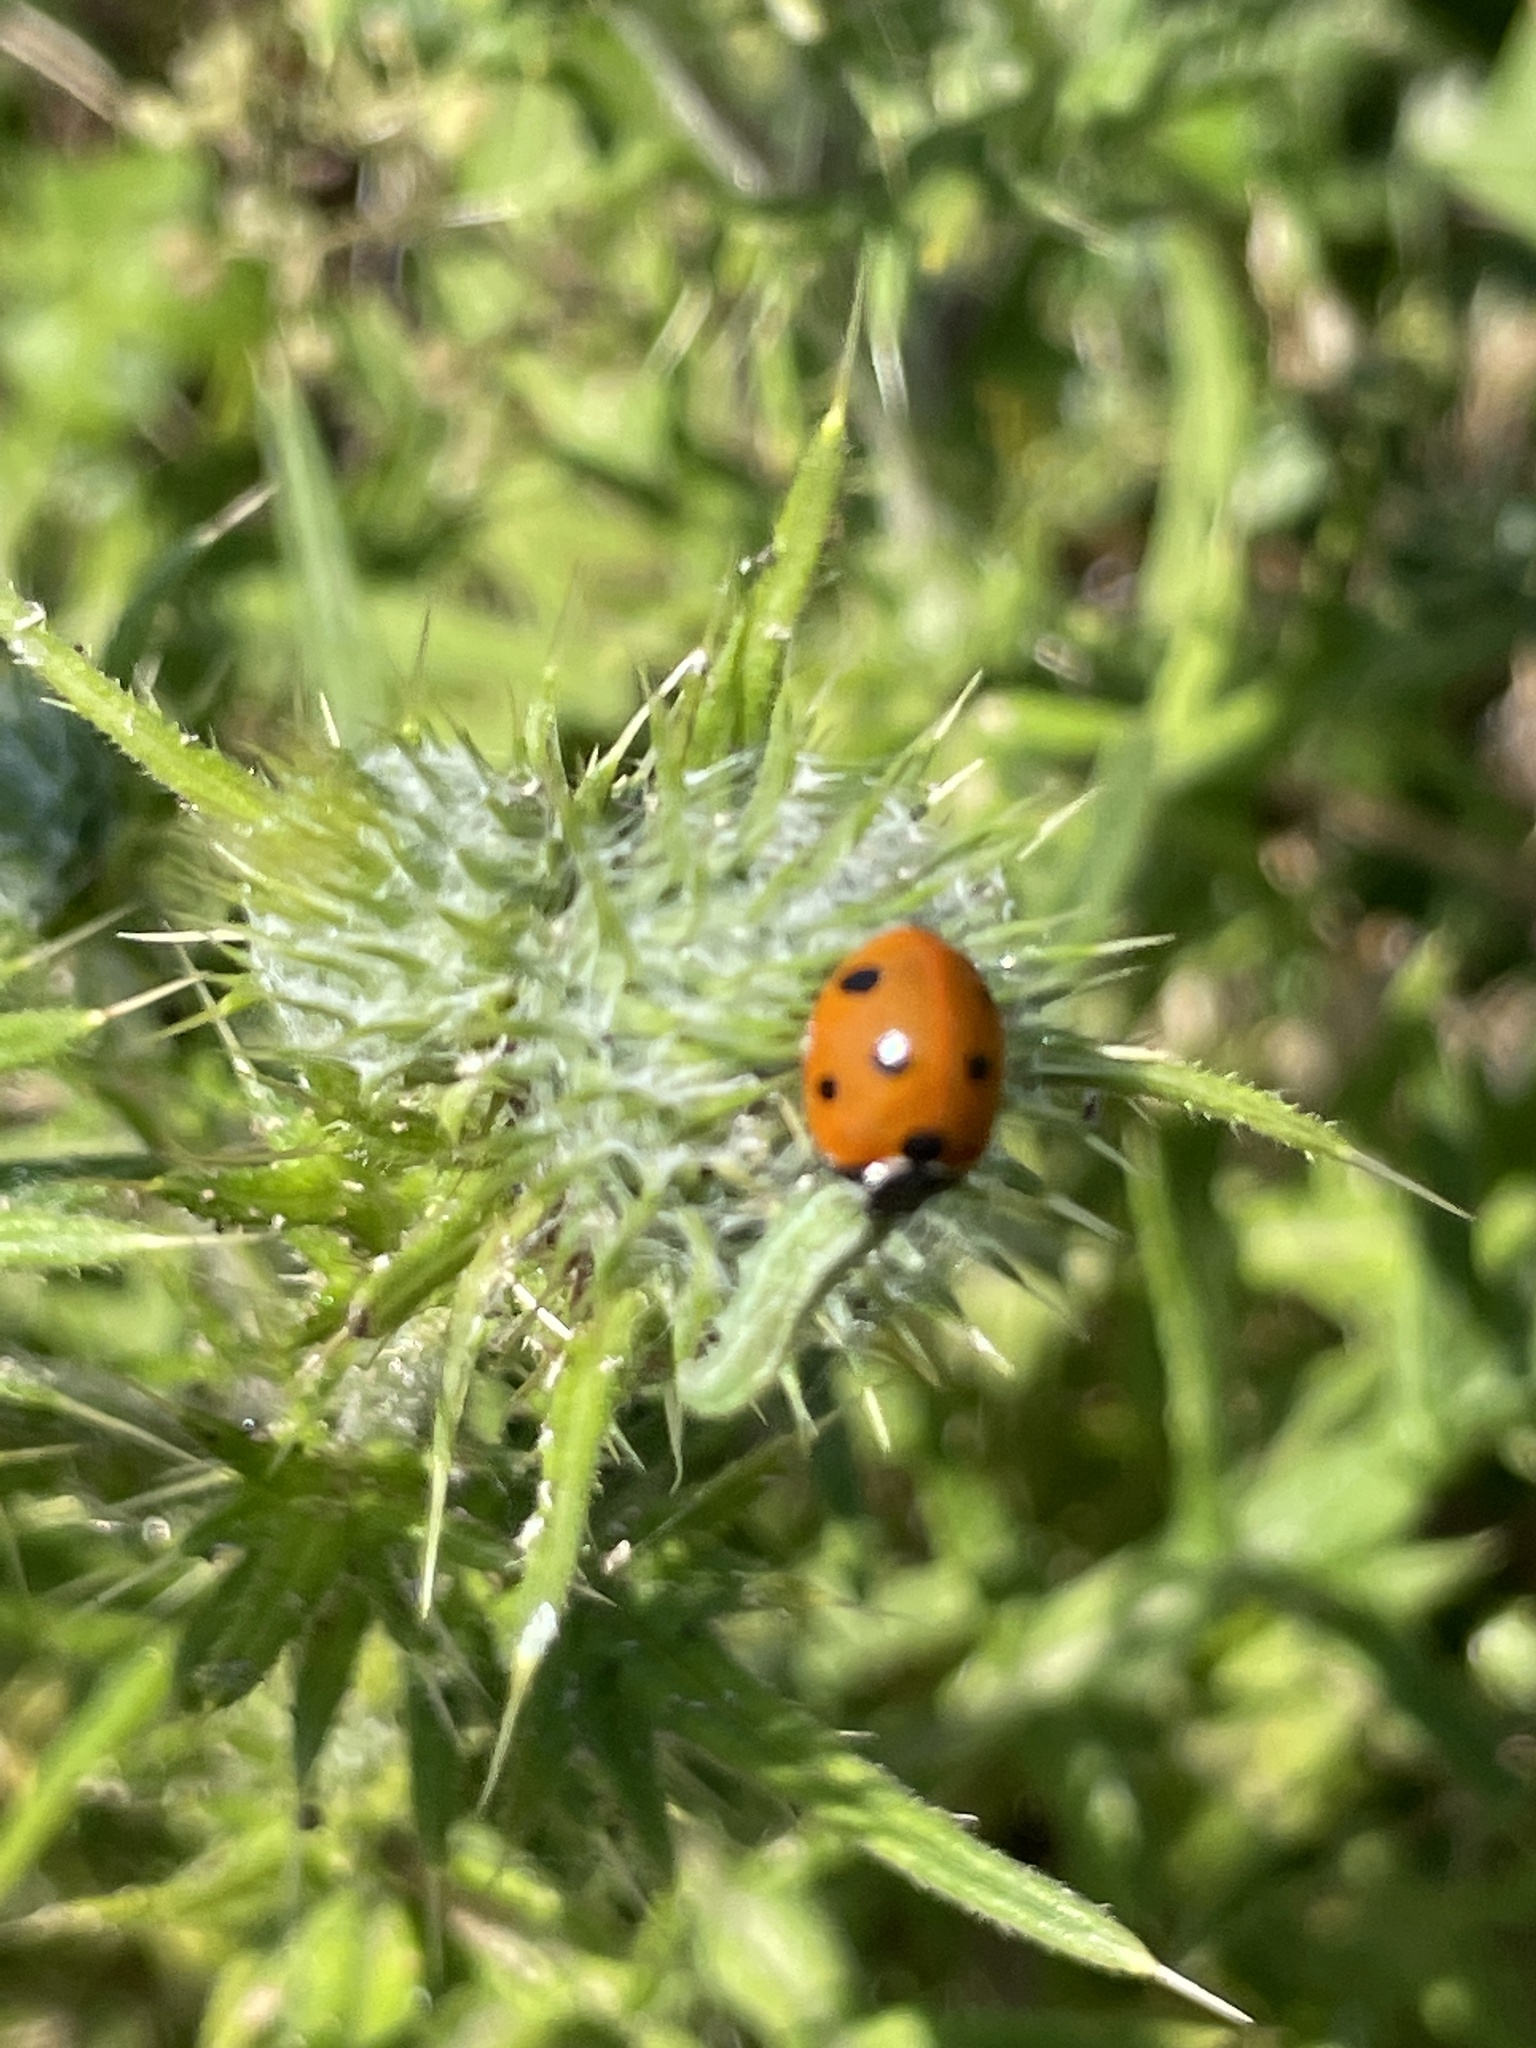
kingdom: Animalia
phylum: Arthropoda
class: Insecta
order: Coleoptera
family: Coccinellidae
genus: Coccinella
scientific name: Coccinella septempunctata
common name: Sevenspotted lady beetle
